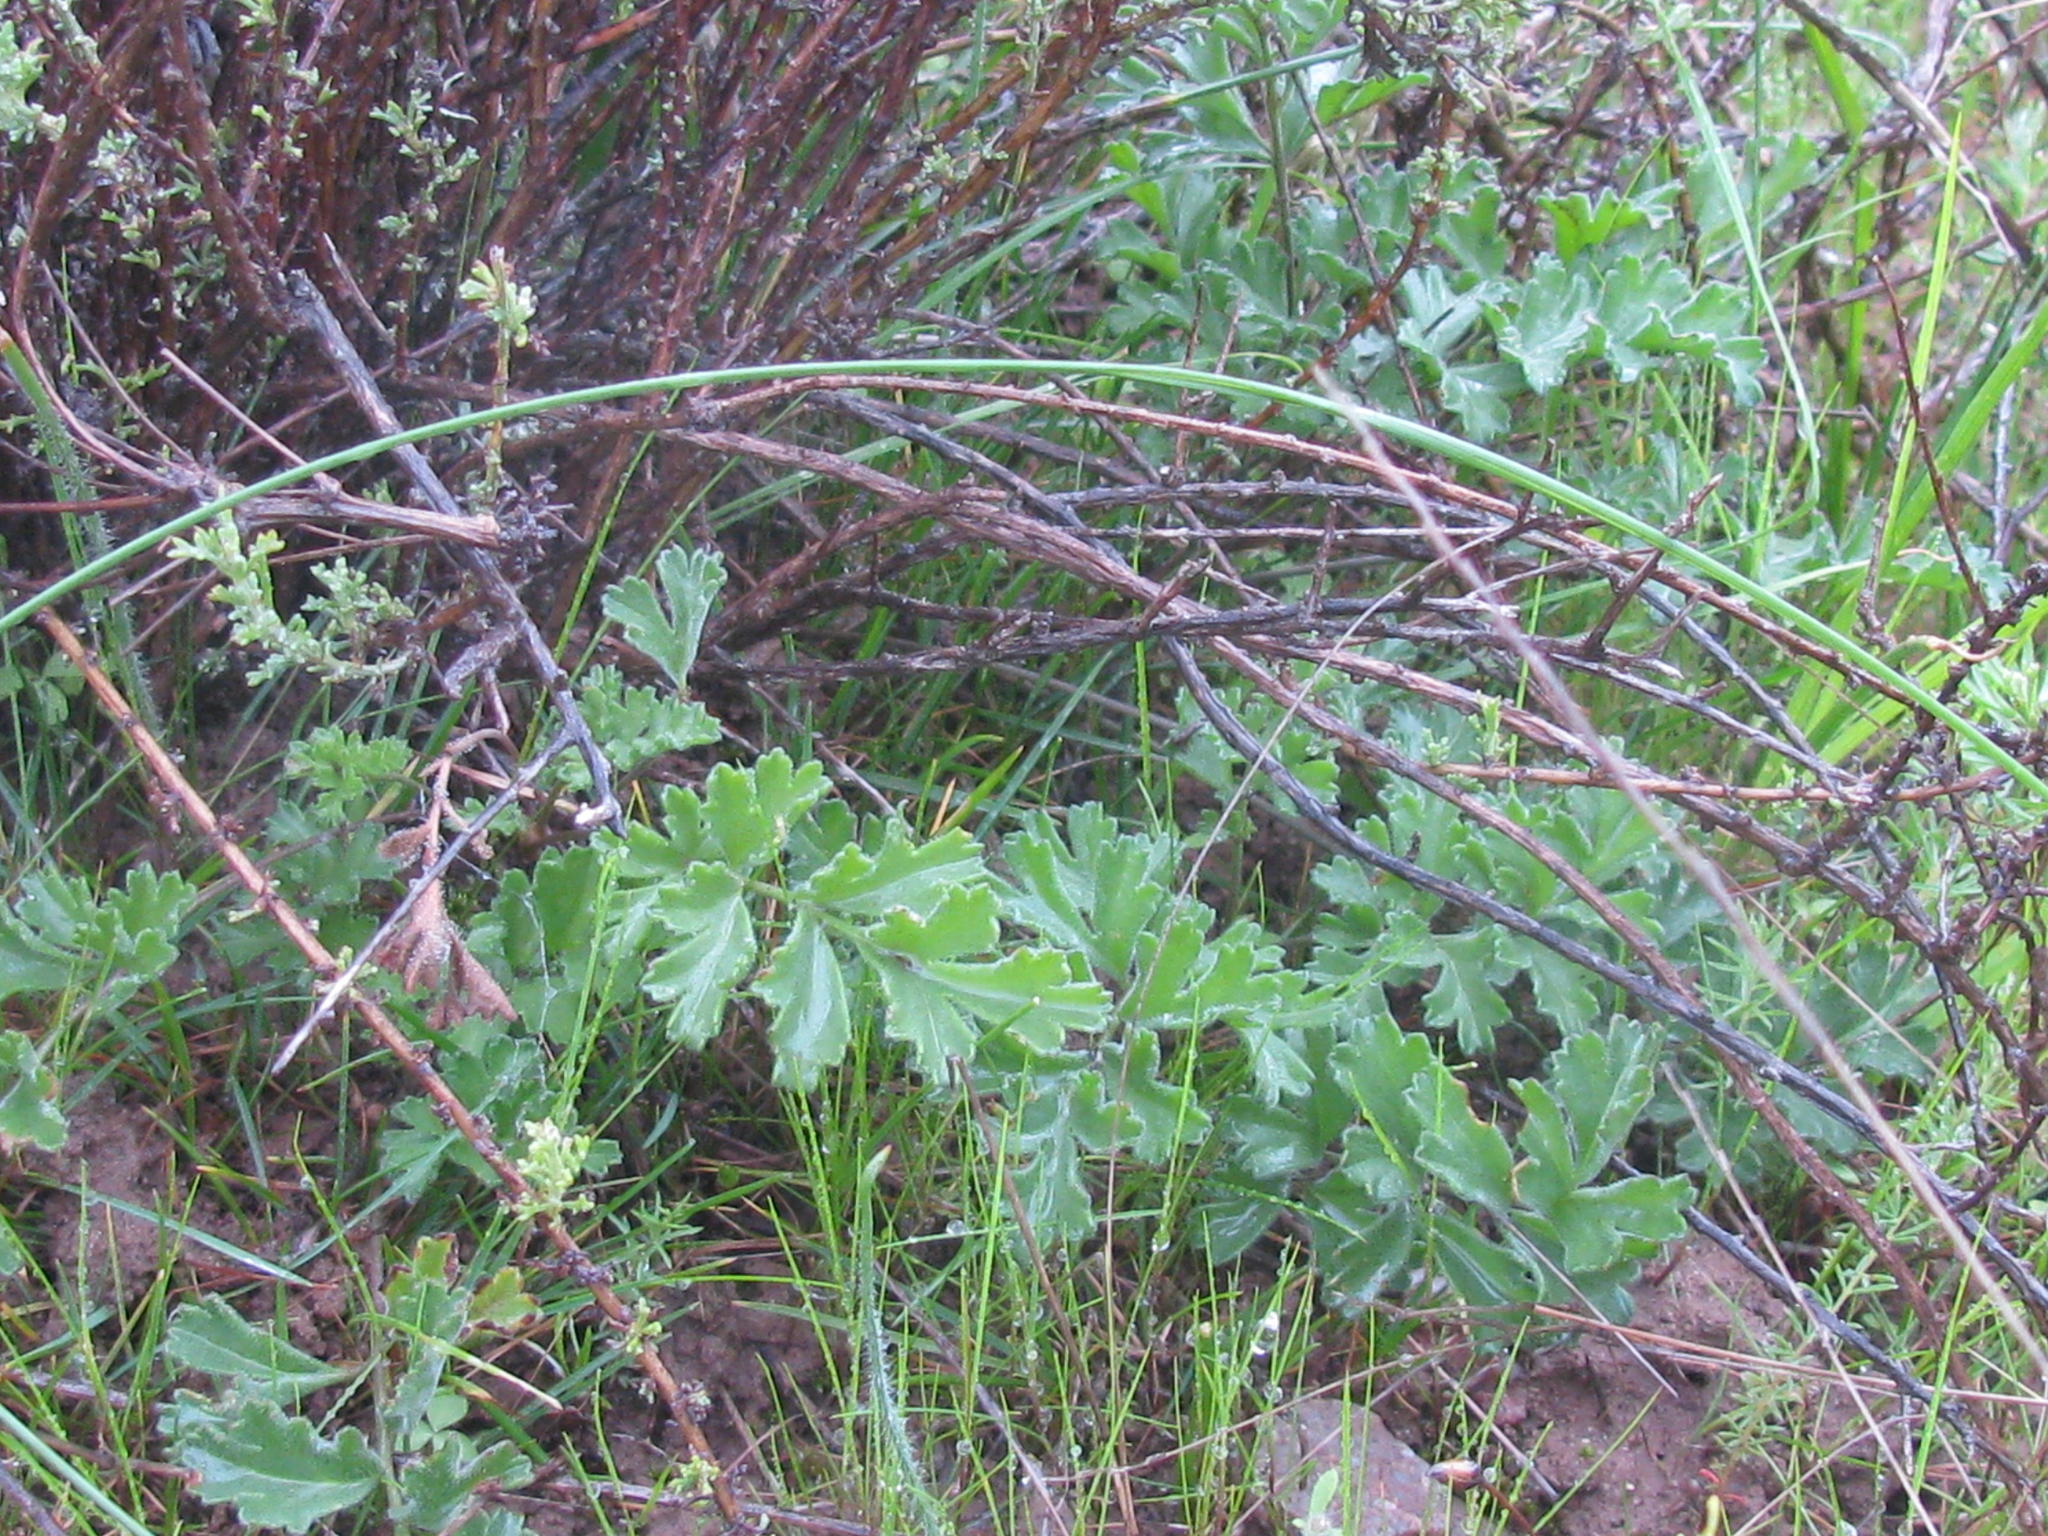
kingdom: Plantae
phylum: Tracheophyta
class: Magnoliopsida
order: Geraniales
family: Geraniaceae
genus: Pelargonium
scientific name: Pelargonium pachypodium
